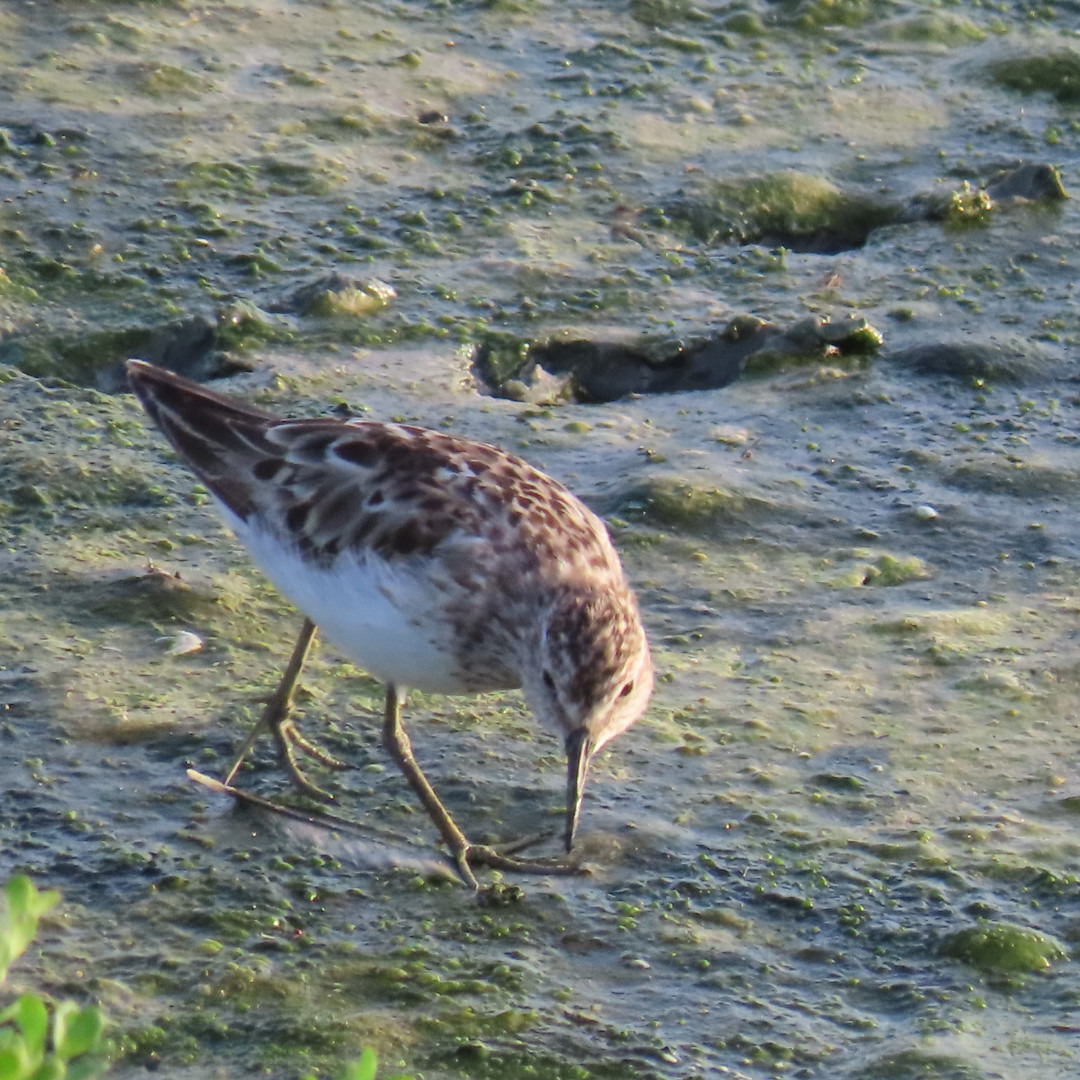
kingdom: Animalia
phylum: Chordata
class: Aves
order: Charadriiformes
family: Scolopacidae
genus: Calidris
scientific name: Calidris minutilla
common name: Least sandpiper
